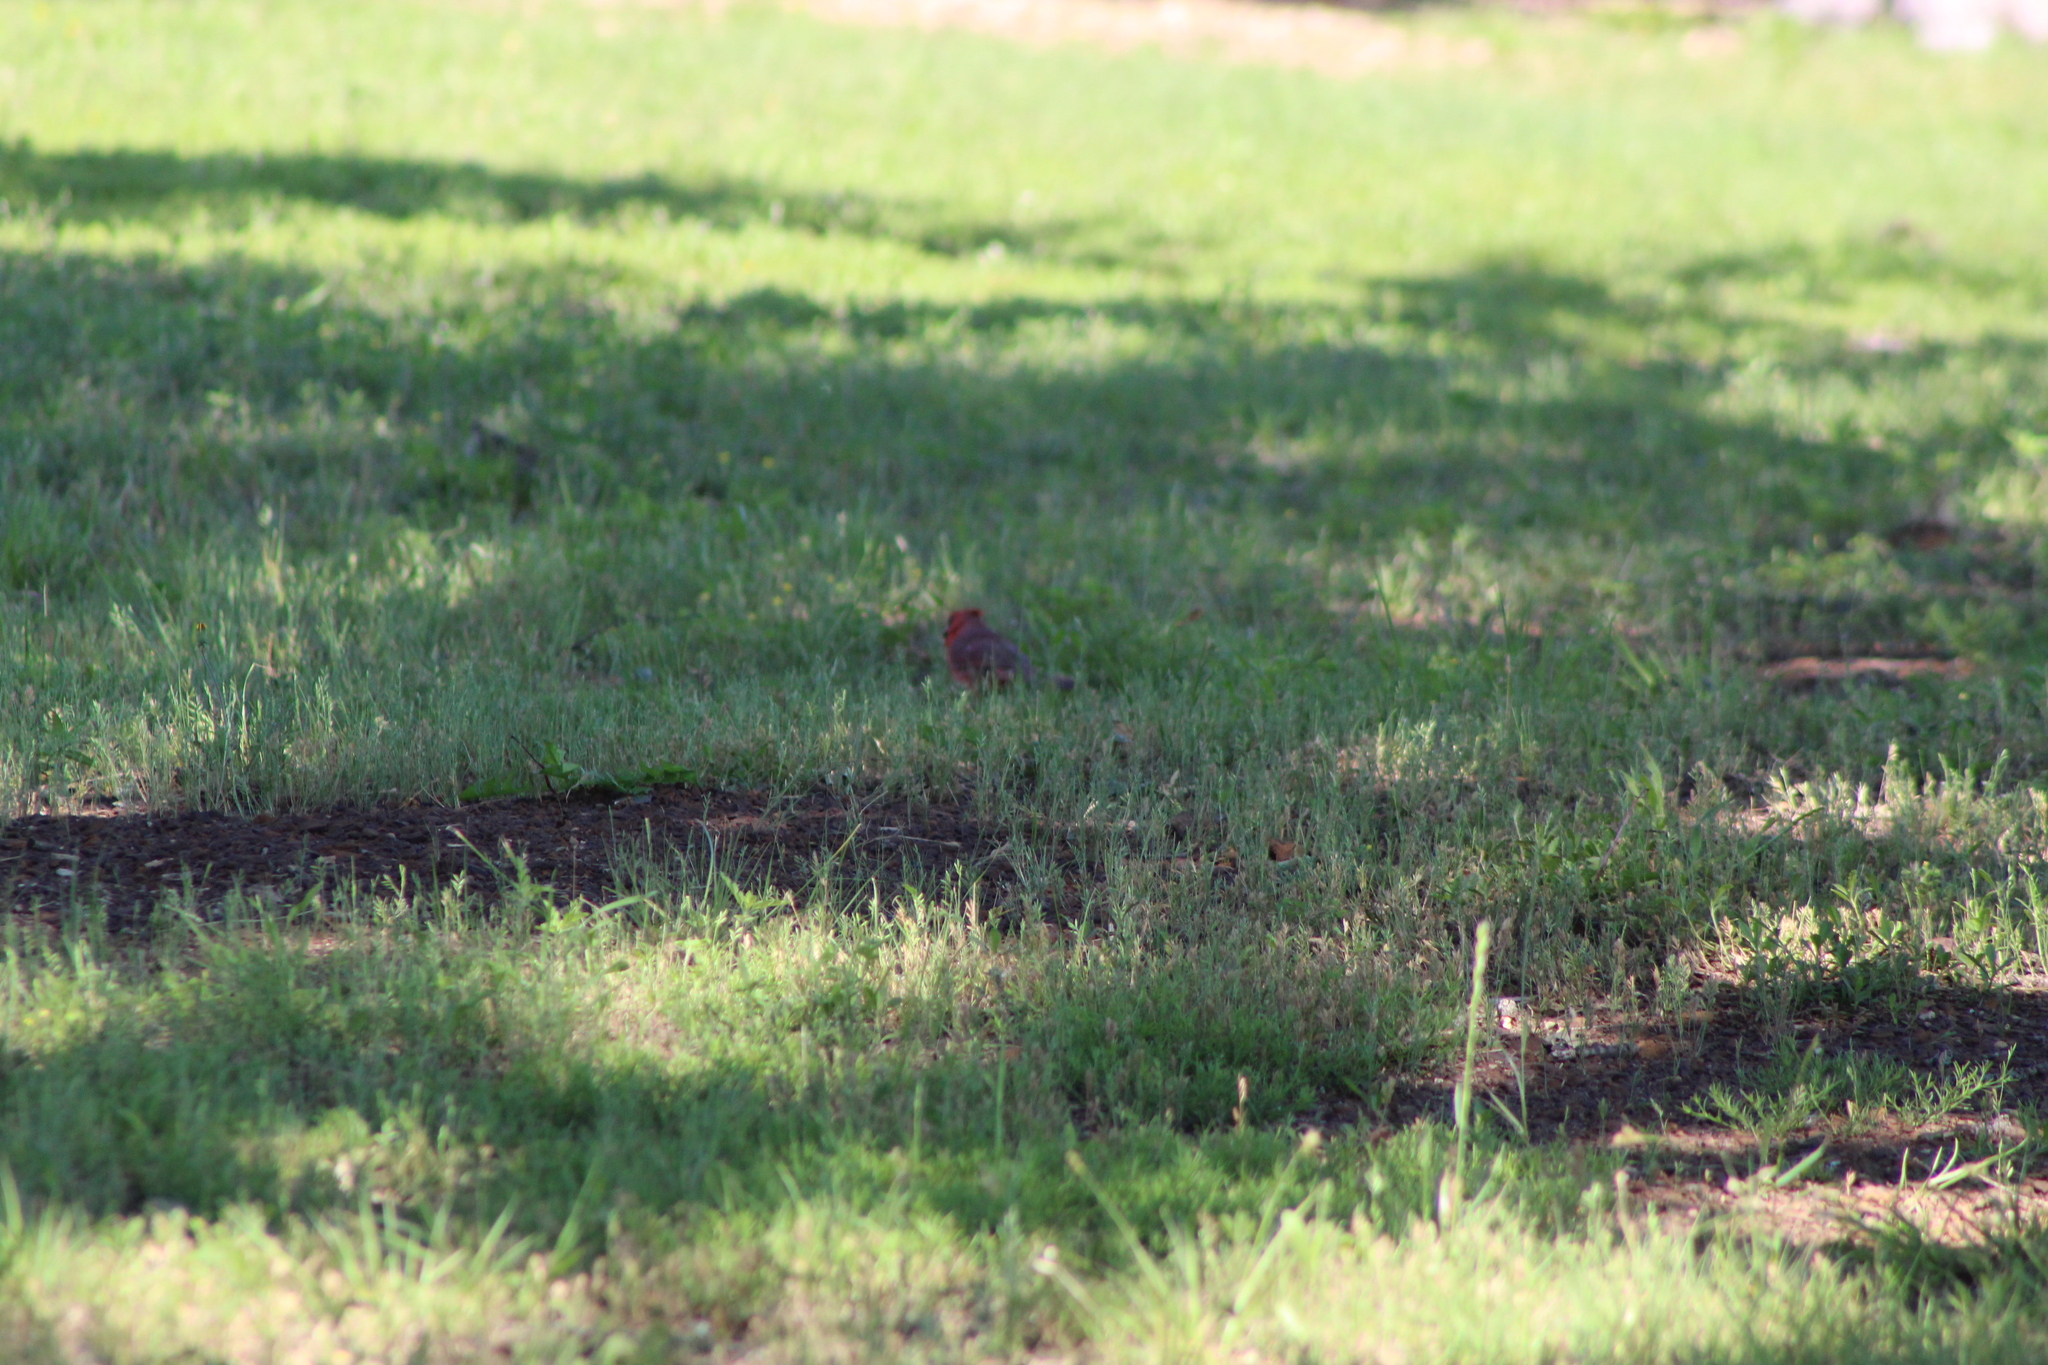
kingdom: Animalia
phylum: Chordata
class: Aves
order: Passeriformes
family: Cardinalidae
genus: Cardinalis
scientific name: Cardinalis cardinalis
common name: Northern cardinal
